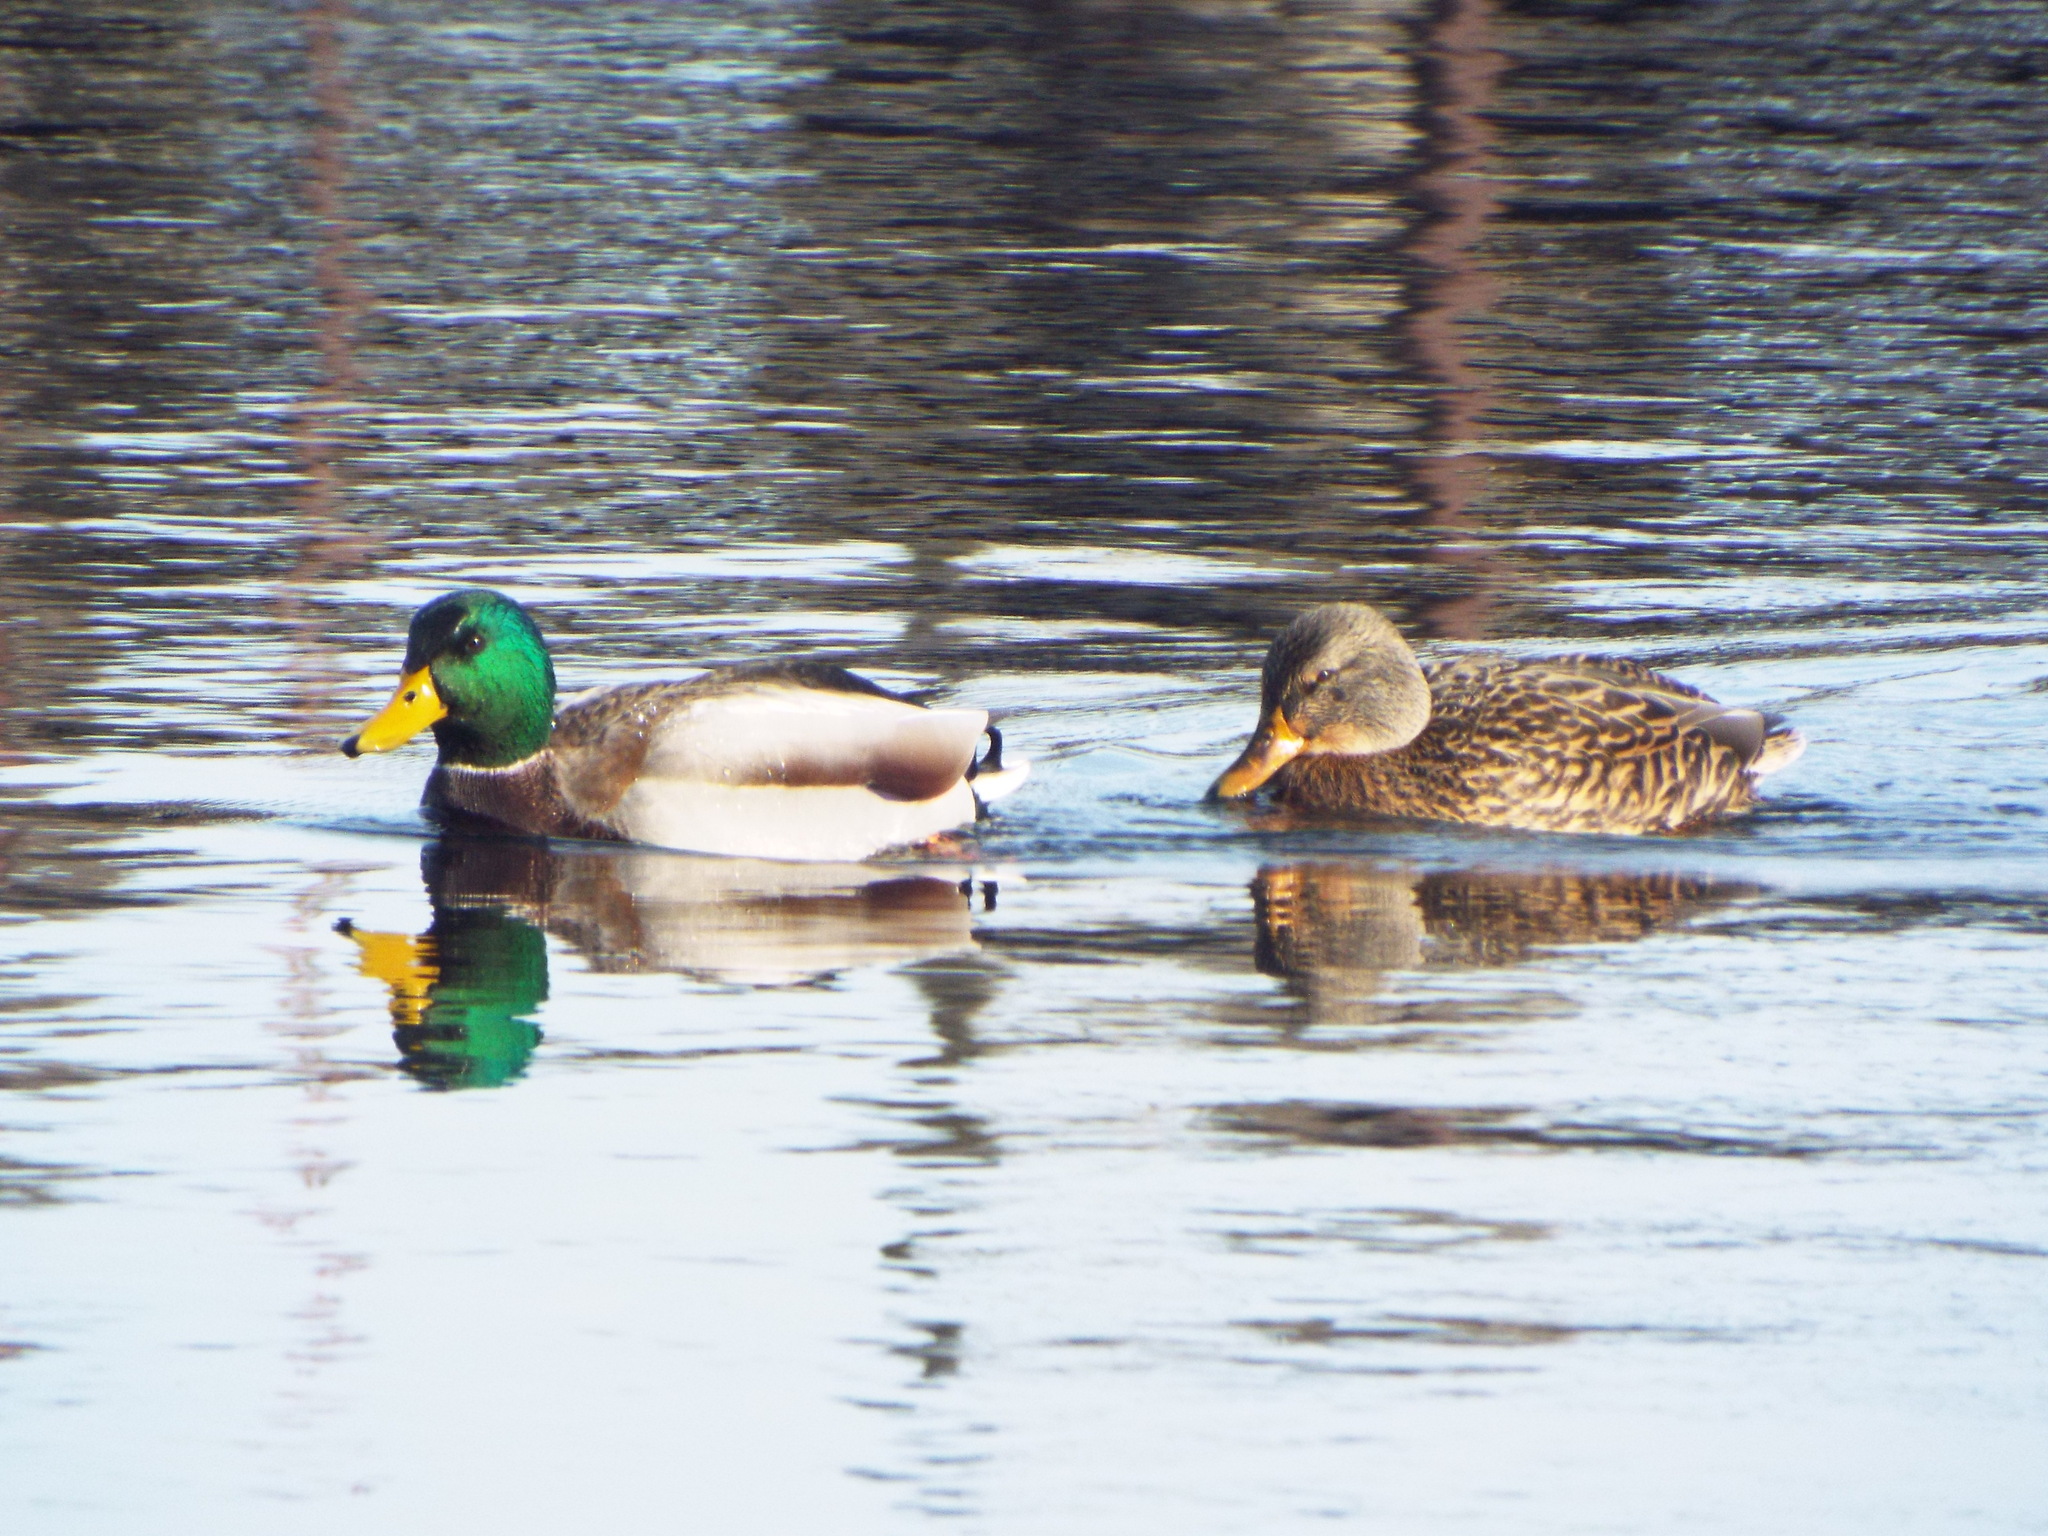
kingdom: Animalia
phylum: Chordata
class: Aves
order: Anseriformes
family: Anatidae
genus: Anas
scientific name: Anas platyrhynchos
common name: Mallard
